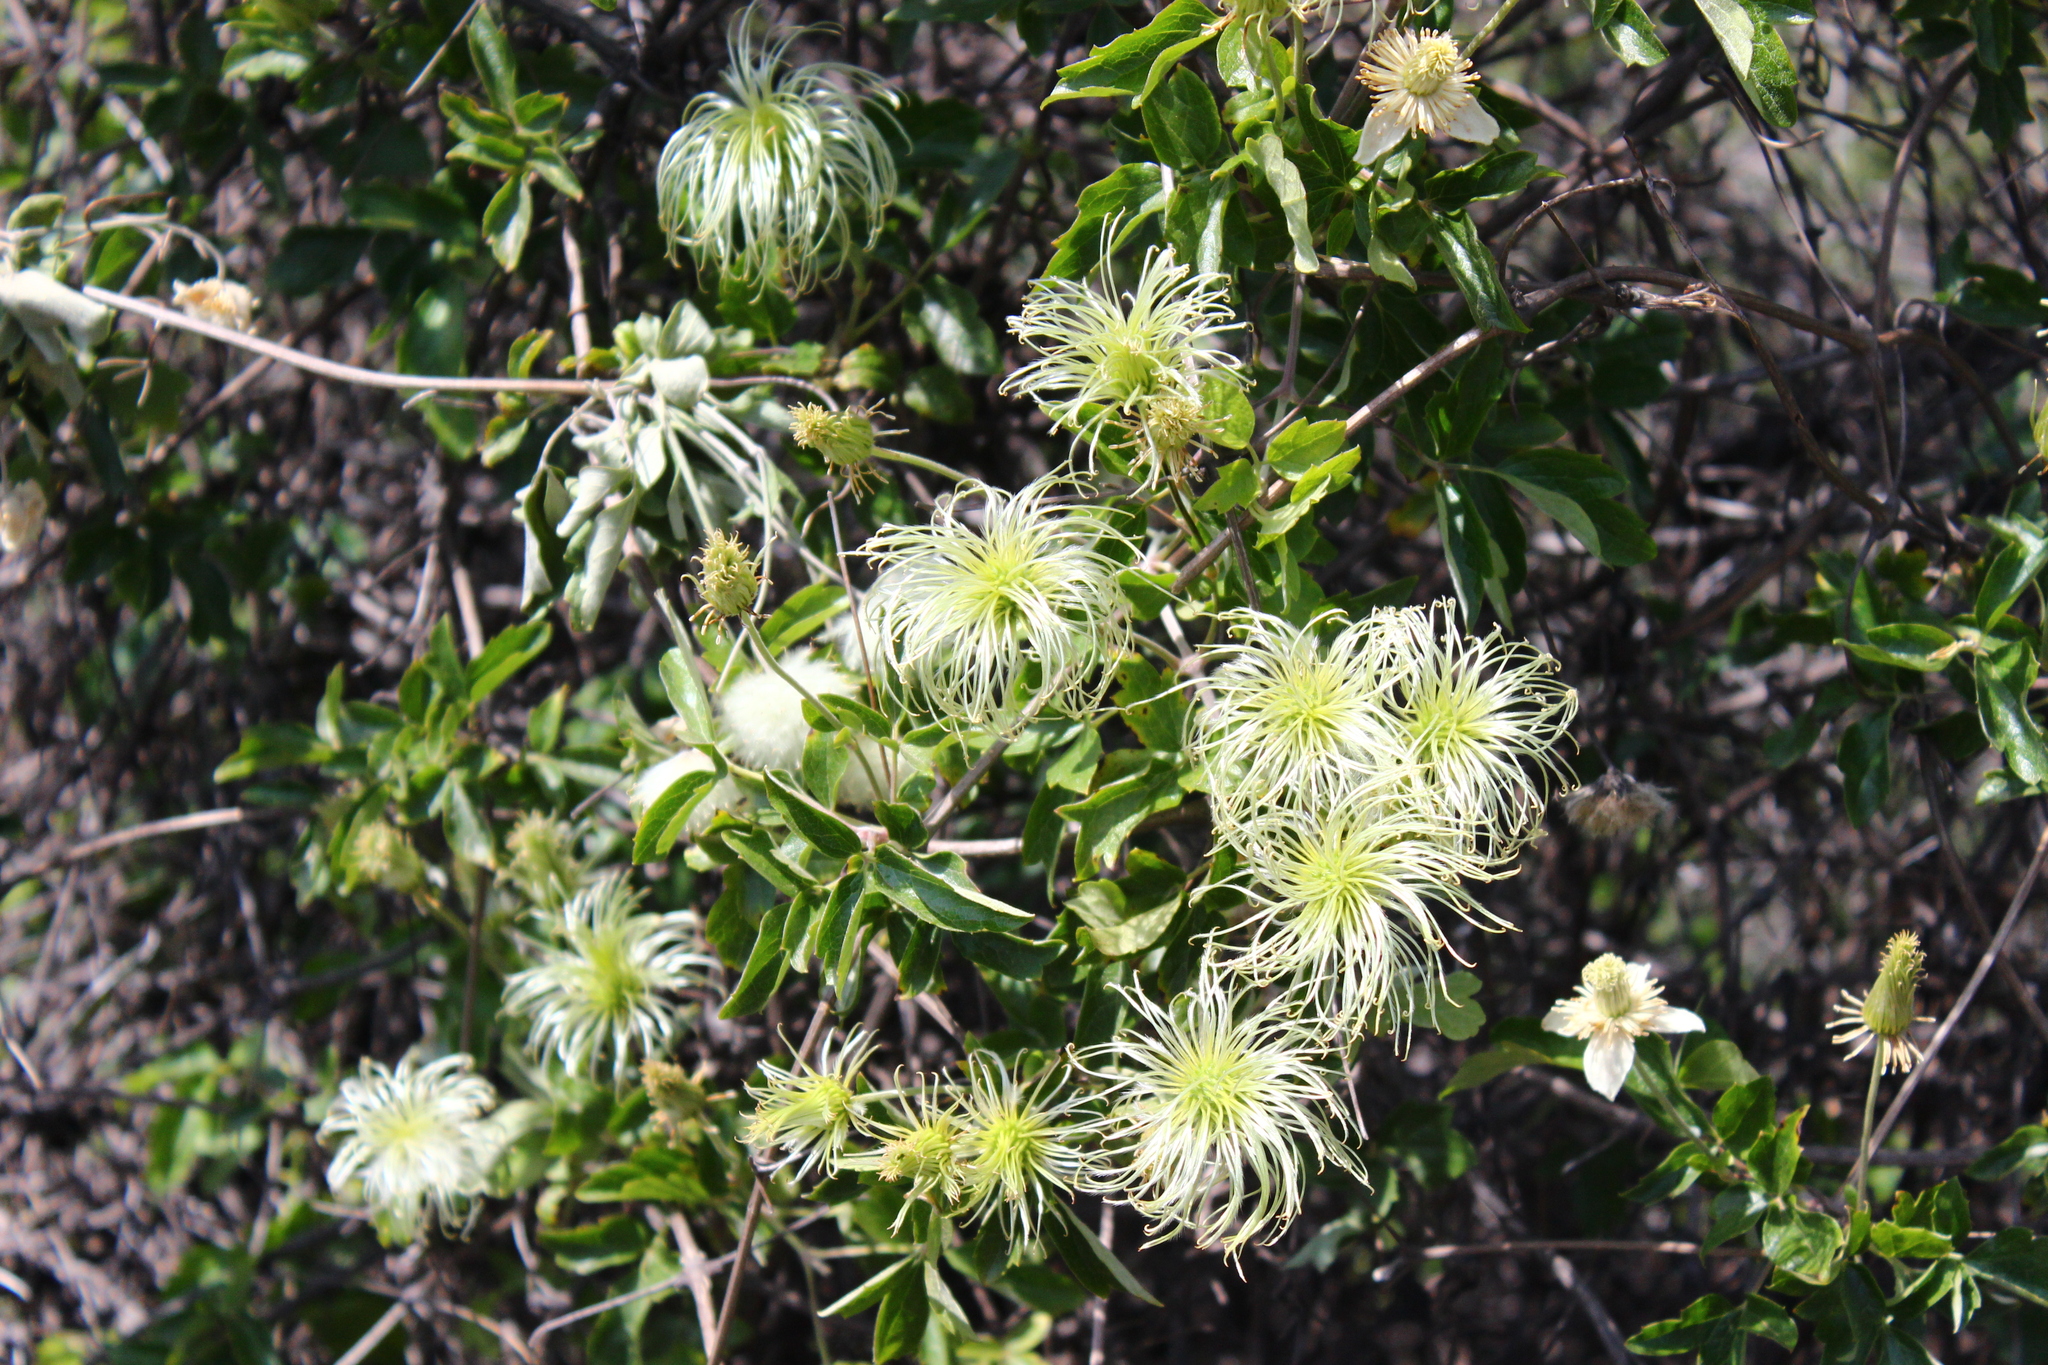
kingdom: Plantae
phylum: Tracheophyta
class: Magnoliopsida
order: Ranunculales
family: Ranunculaceae
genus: Clematis
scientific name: Clematis lasiantha
